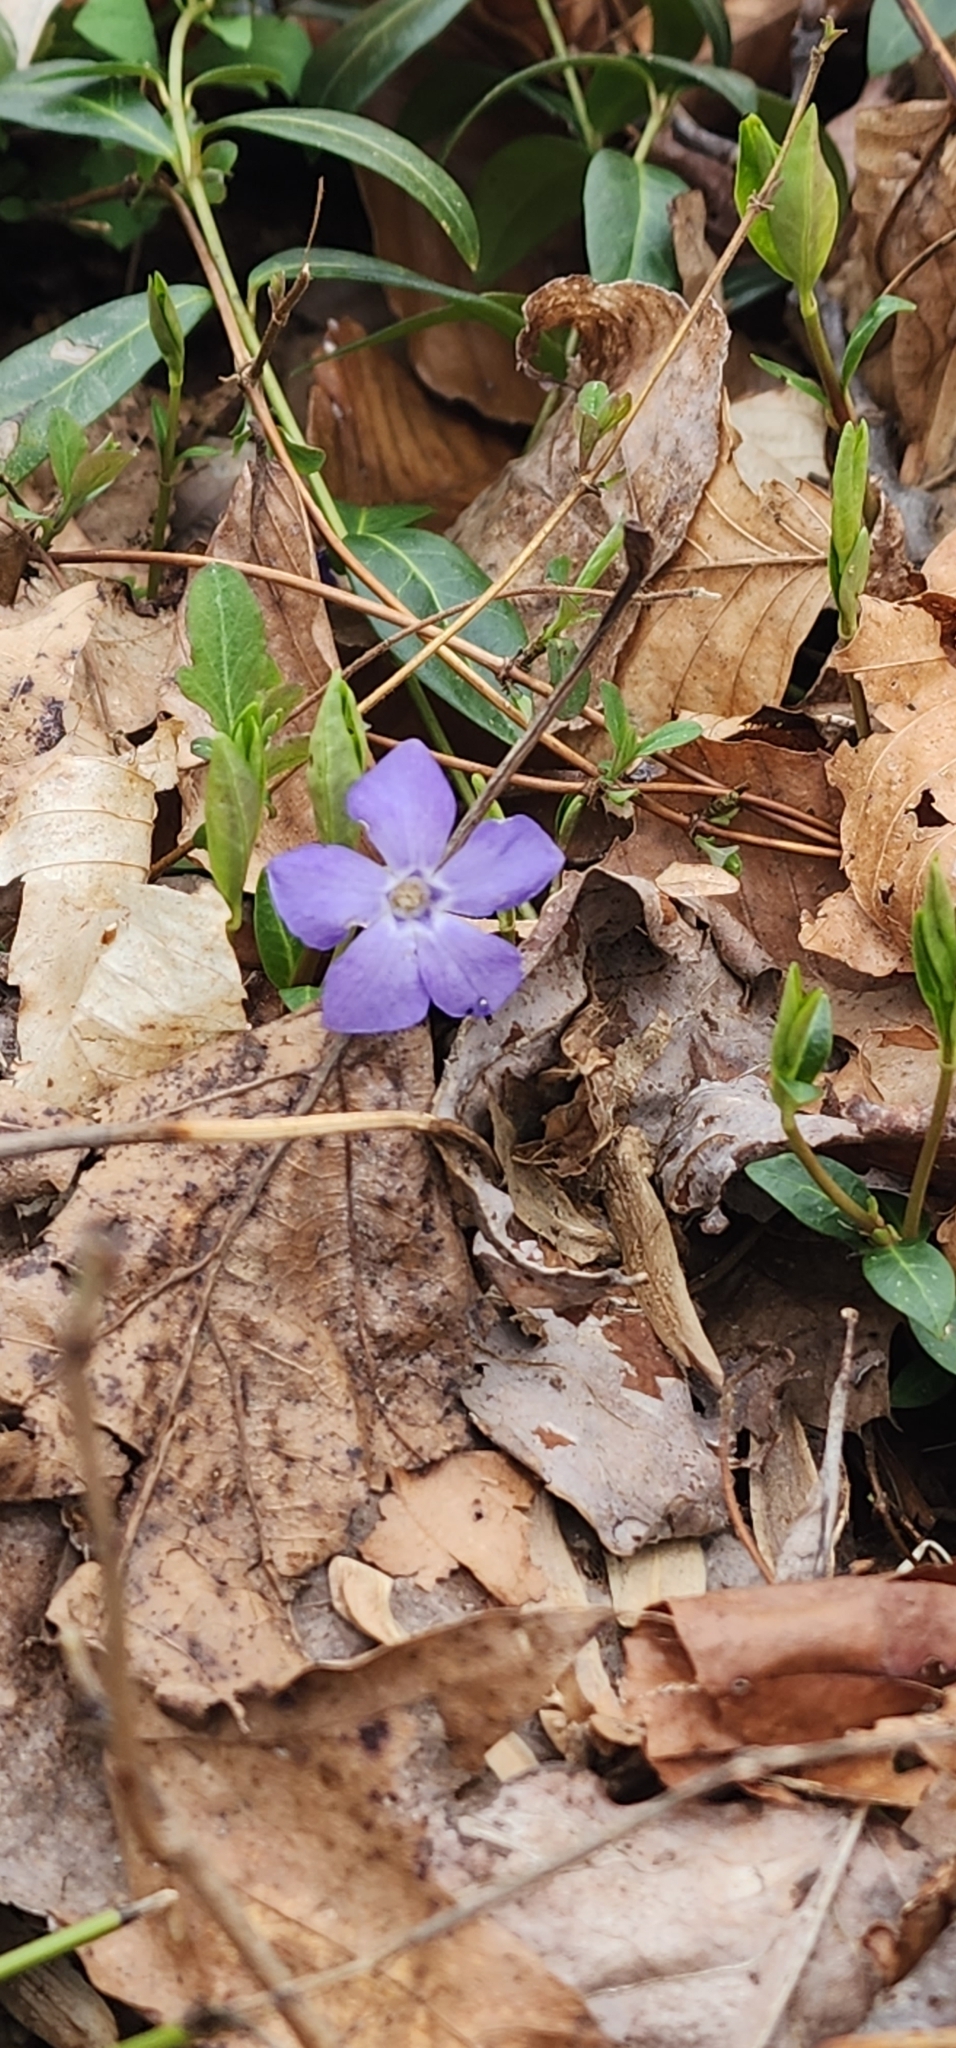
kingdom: Plantae
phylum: Tracheophyta
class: Magnoliopsida
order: Gentianales
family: Apocynaceae
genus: Vinca
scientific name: Vinca minor
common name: Lesser periwinkle
